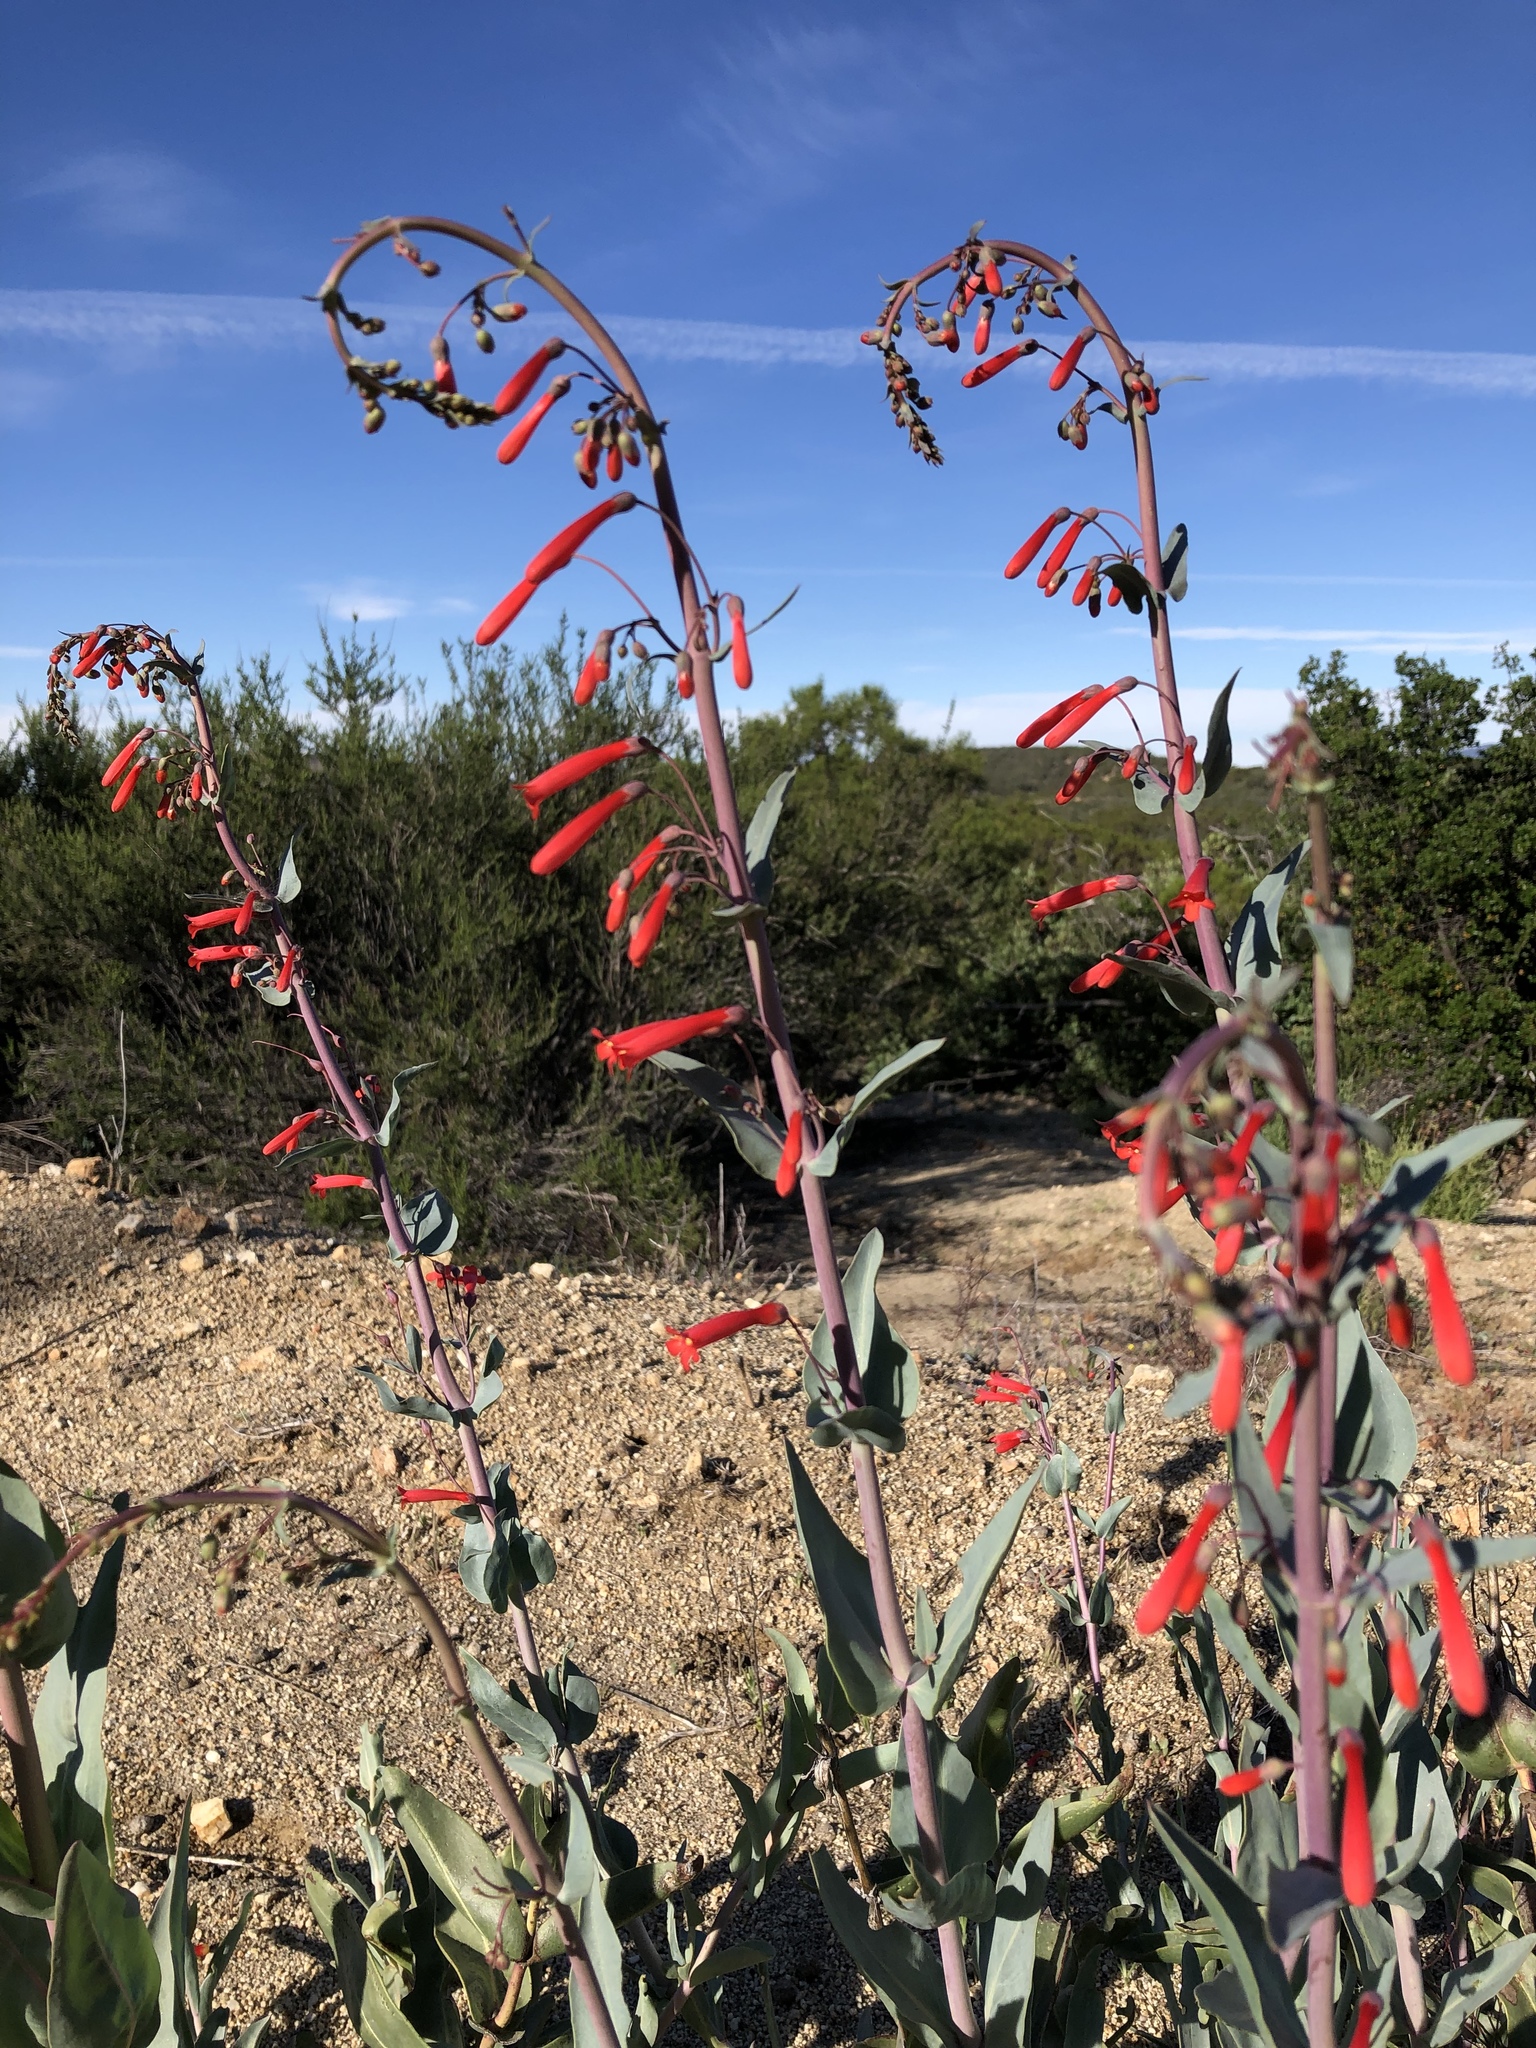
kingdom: Plantae
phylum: Tracheophyta
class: Magnoliopsida
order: Lamiales
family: Plantaginaceae
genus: Penstemon
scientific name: Penstemon centranthifolius
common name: Scarlet bugler
